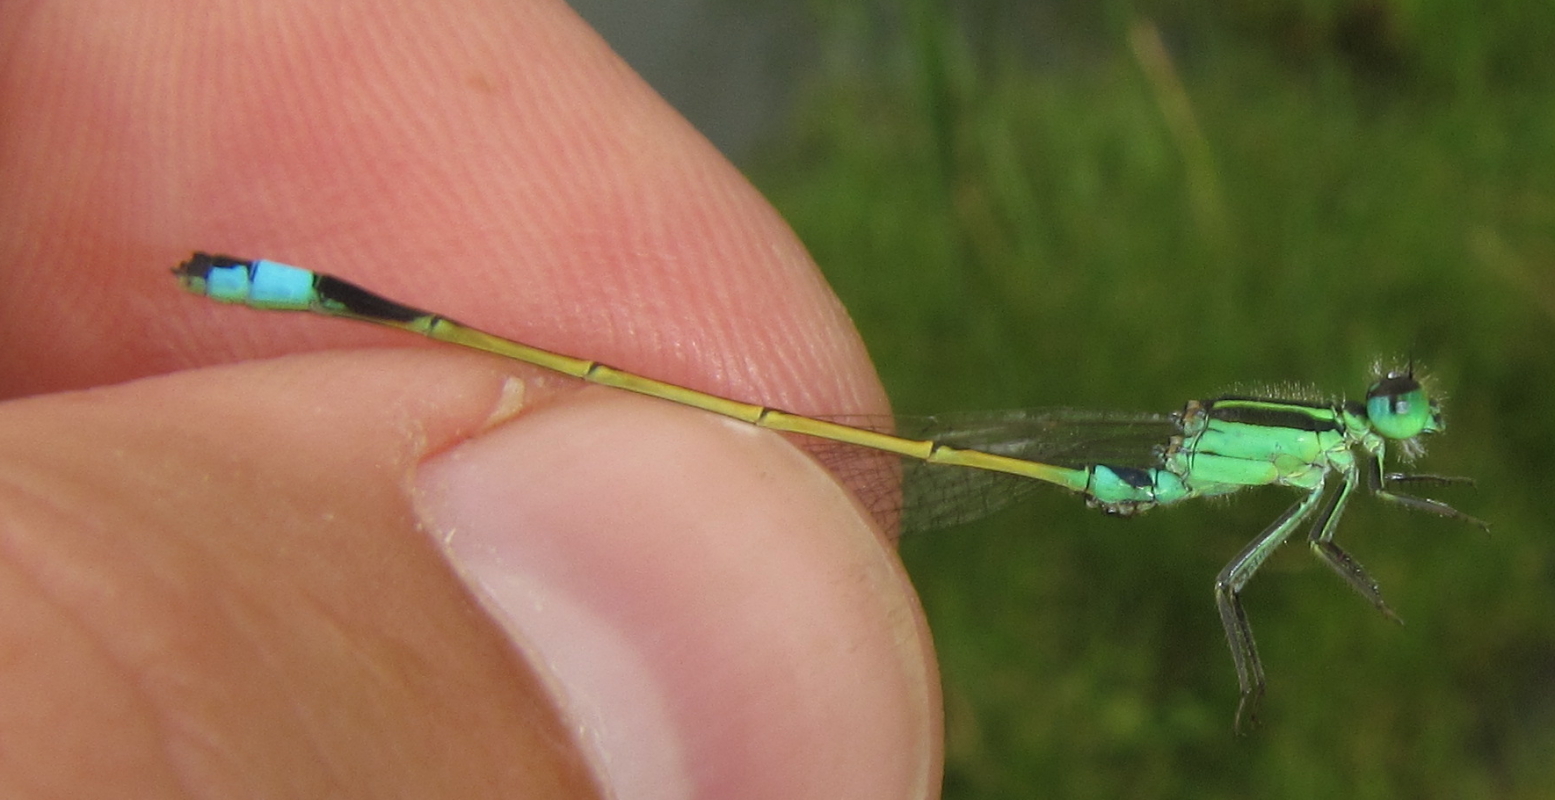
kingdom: Animalia
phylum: Arthropoda
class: Insecta
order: Odonata
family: Coenagrionidae
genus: Ischnura
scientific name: Ischnura senegalensis
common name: Tropical bluetail
